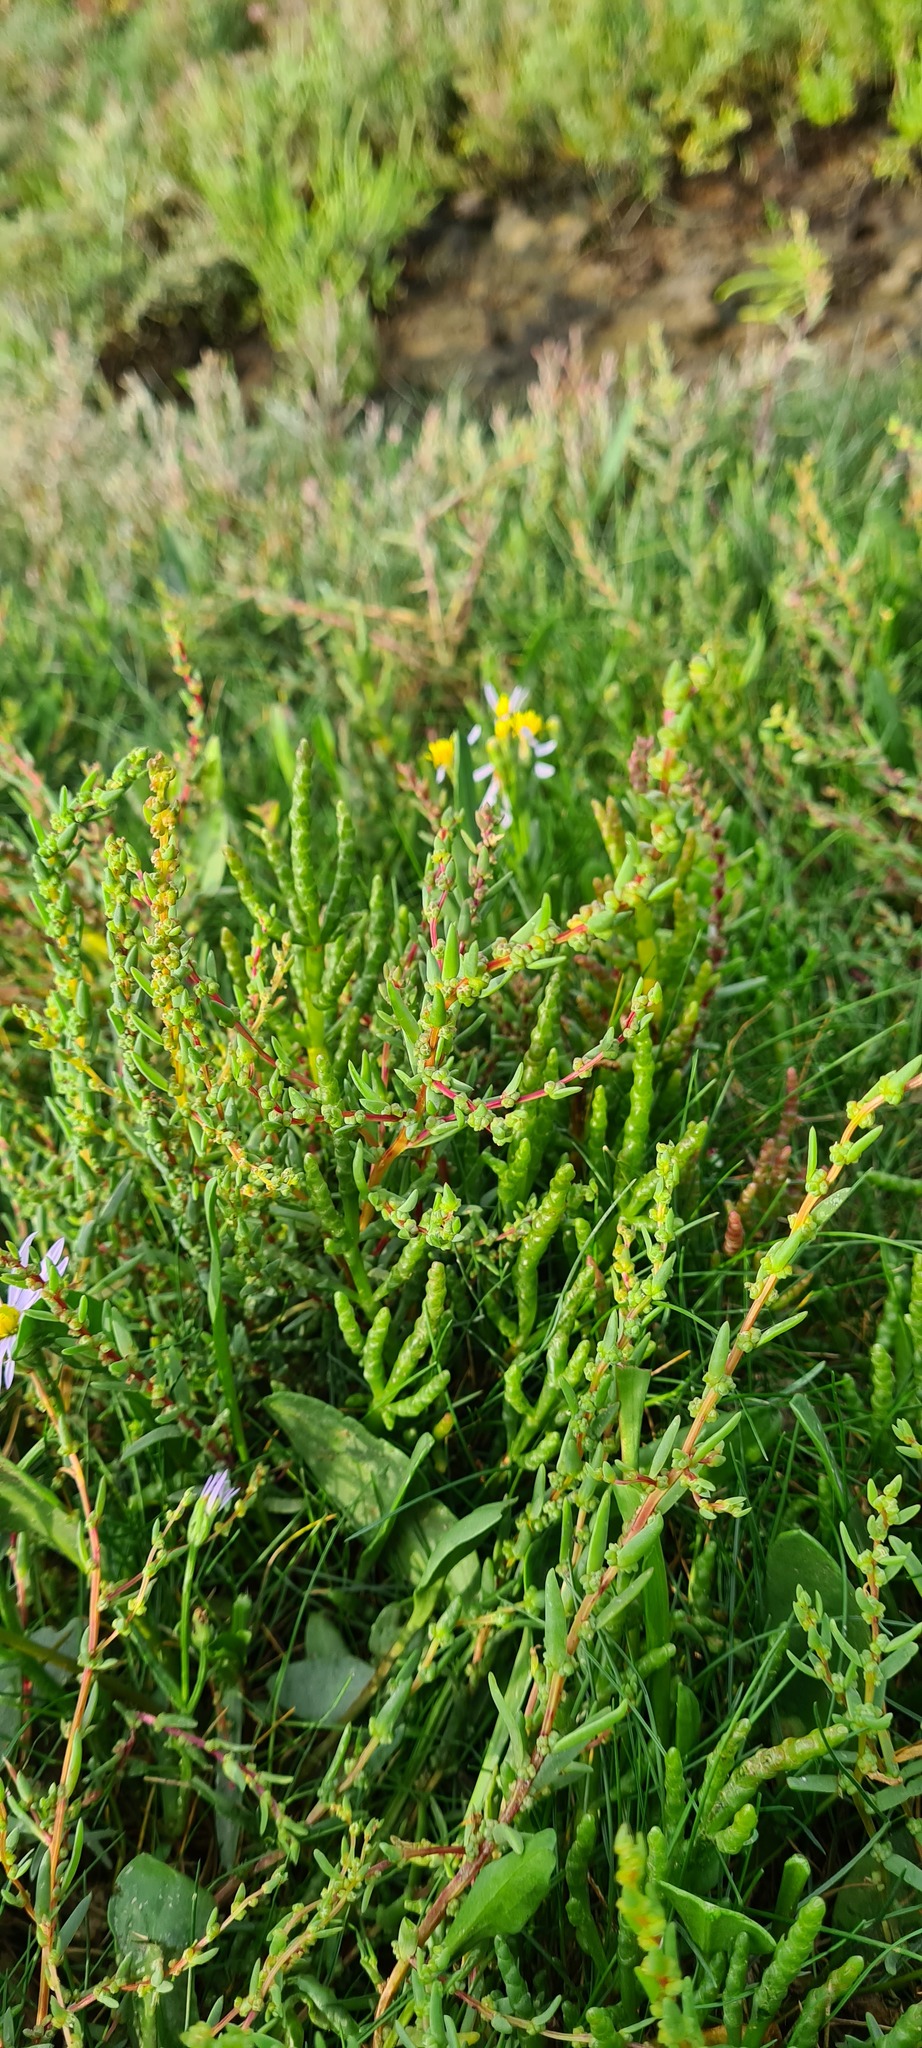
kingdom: Plantae
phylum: Tracheophyta
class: Magnoliopsida
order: Caryophyllales
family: Amaranthaceae
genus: Suaeda
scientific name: Suaeda maritima
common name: Annual sea-blite
